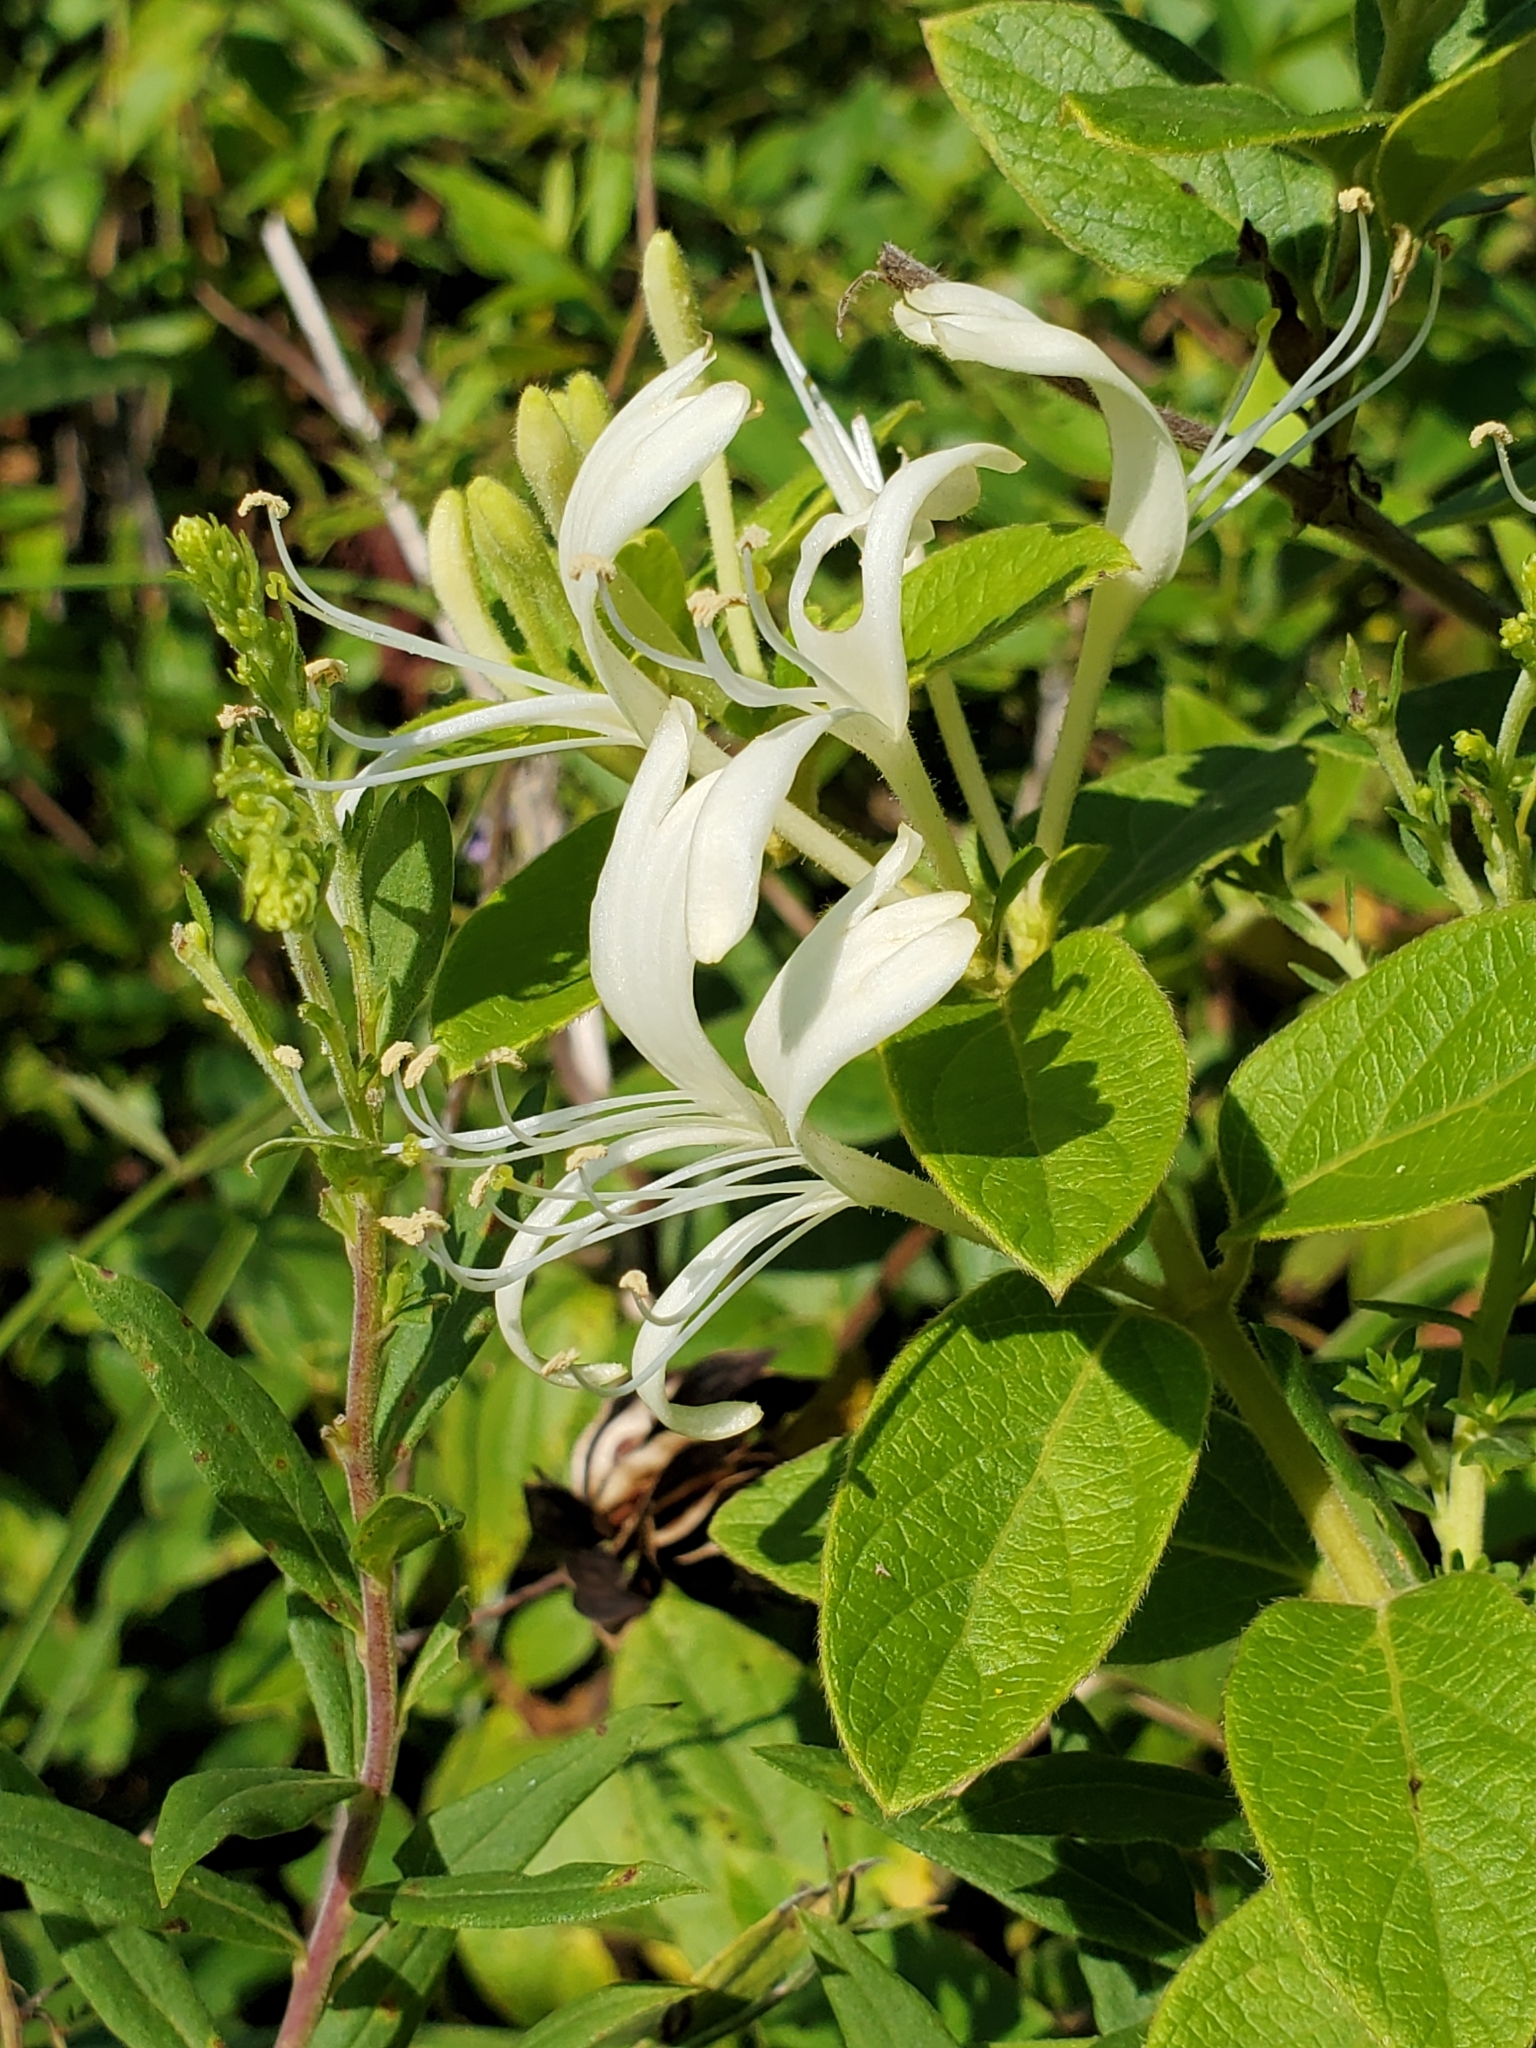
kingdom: Plantae
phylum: Tracheophyta
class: Magnoliopsida
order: Dipsacales
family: Caprifoliaceae
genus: Lonicera
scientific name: Lonicera japonica
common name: Japanese honeysuckle
